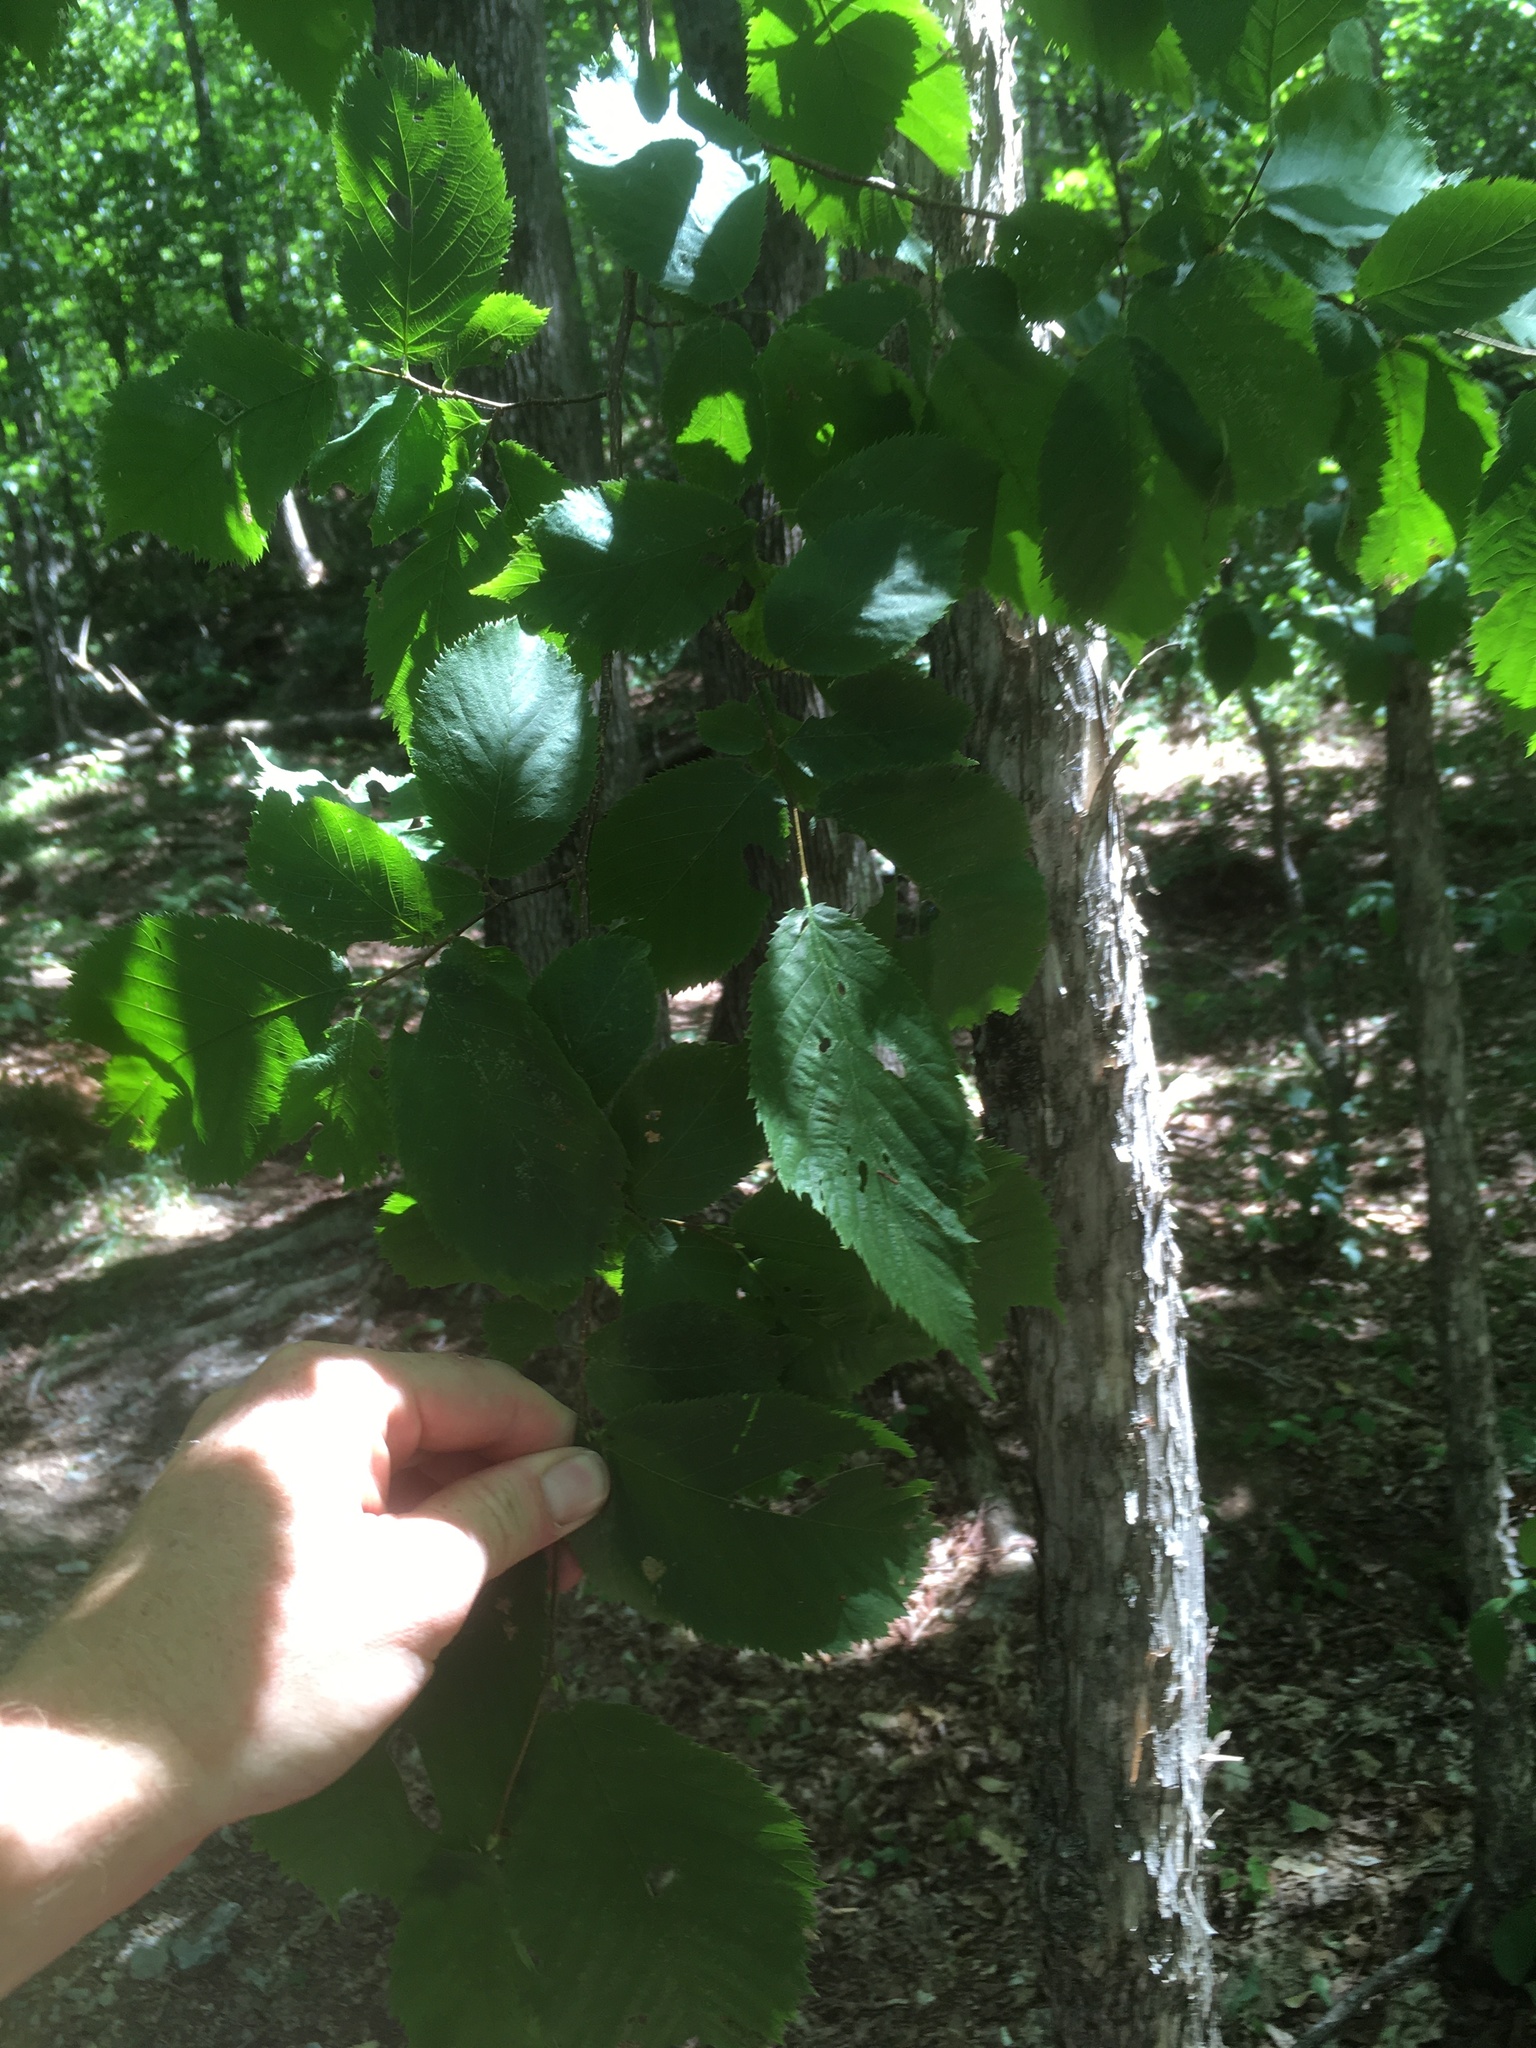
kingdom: Plantae
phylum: Tracheophyta
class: Magnoliopsida
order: Fagales
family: Betulaceae
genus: Ostrya
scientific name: Ostrya virginiana
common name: Ironwood
